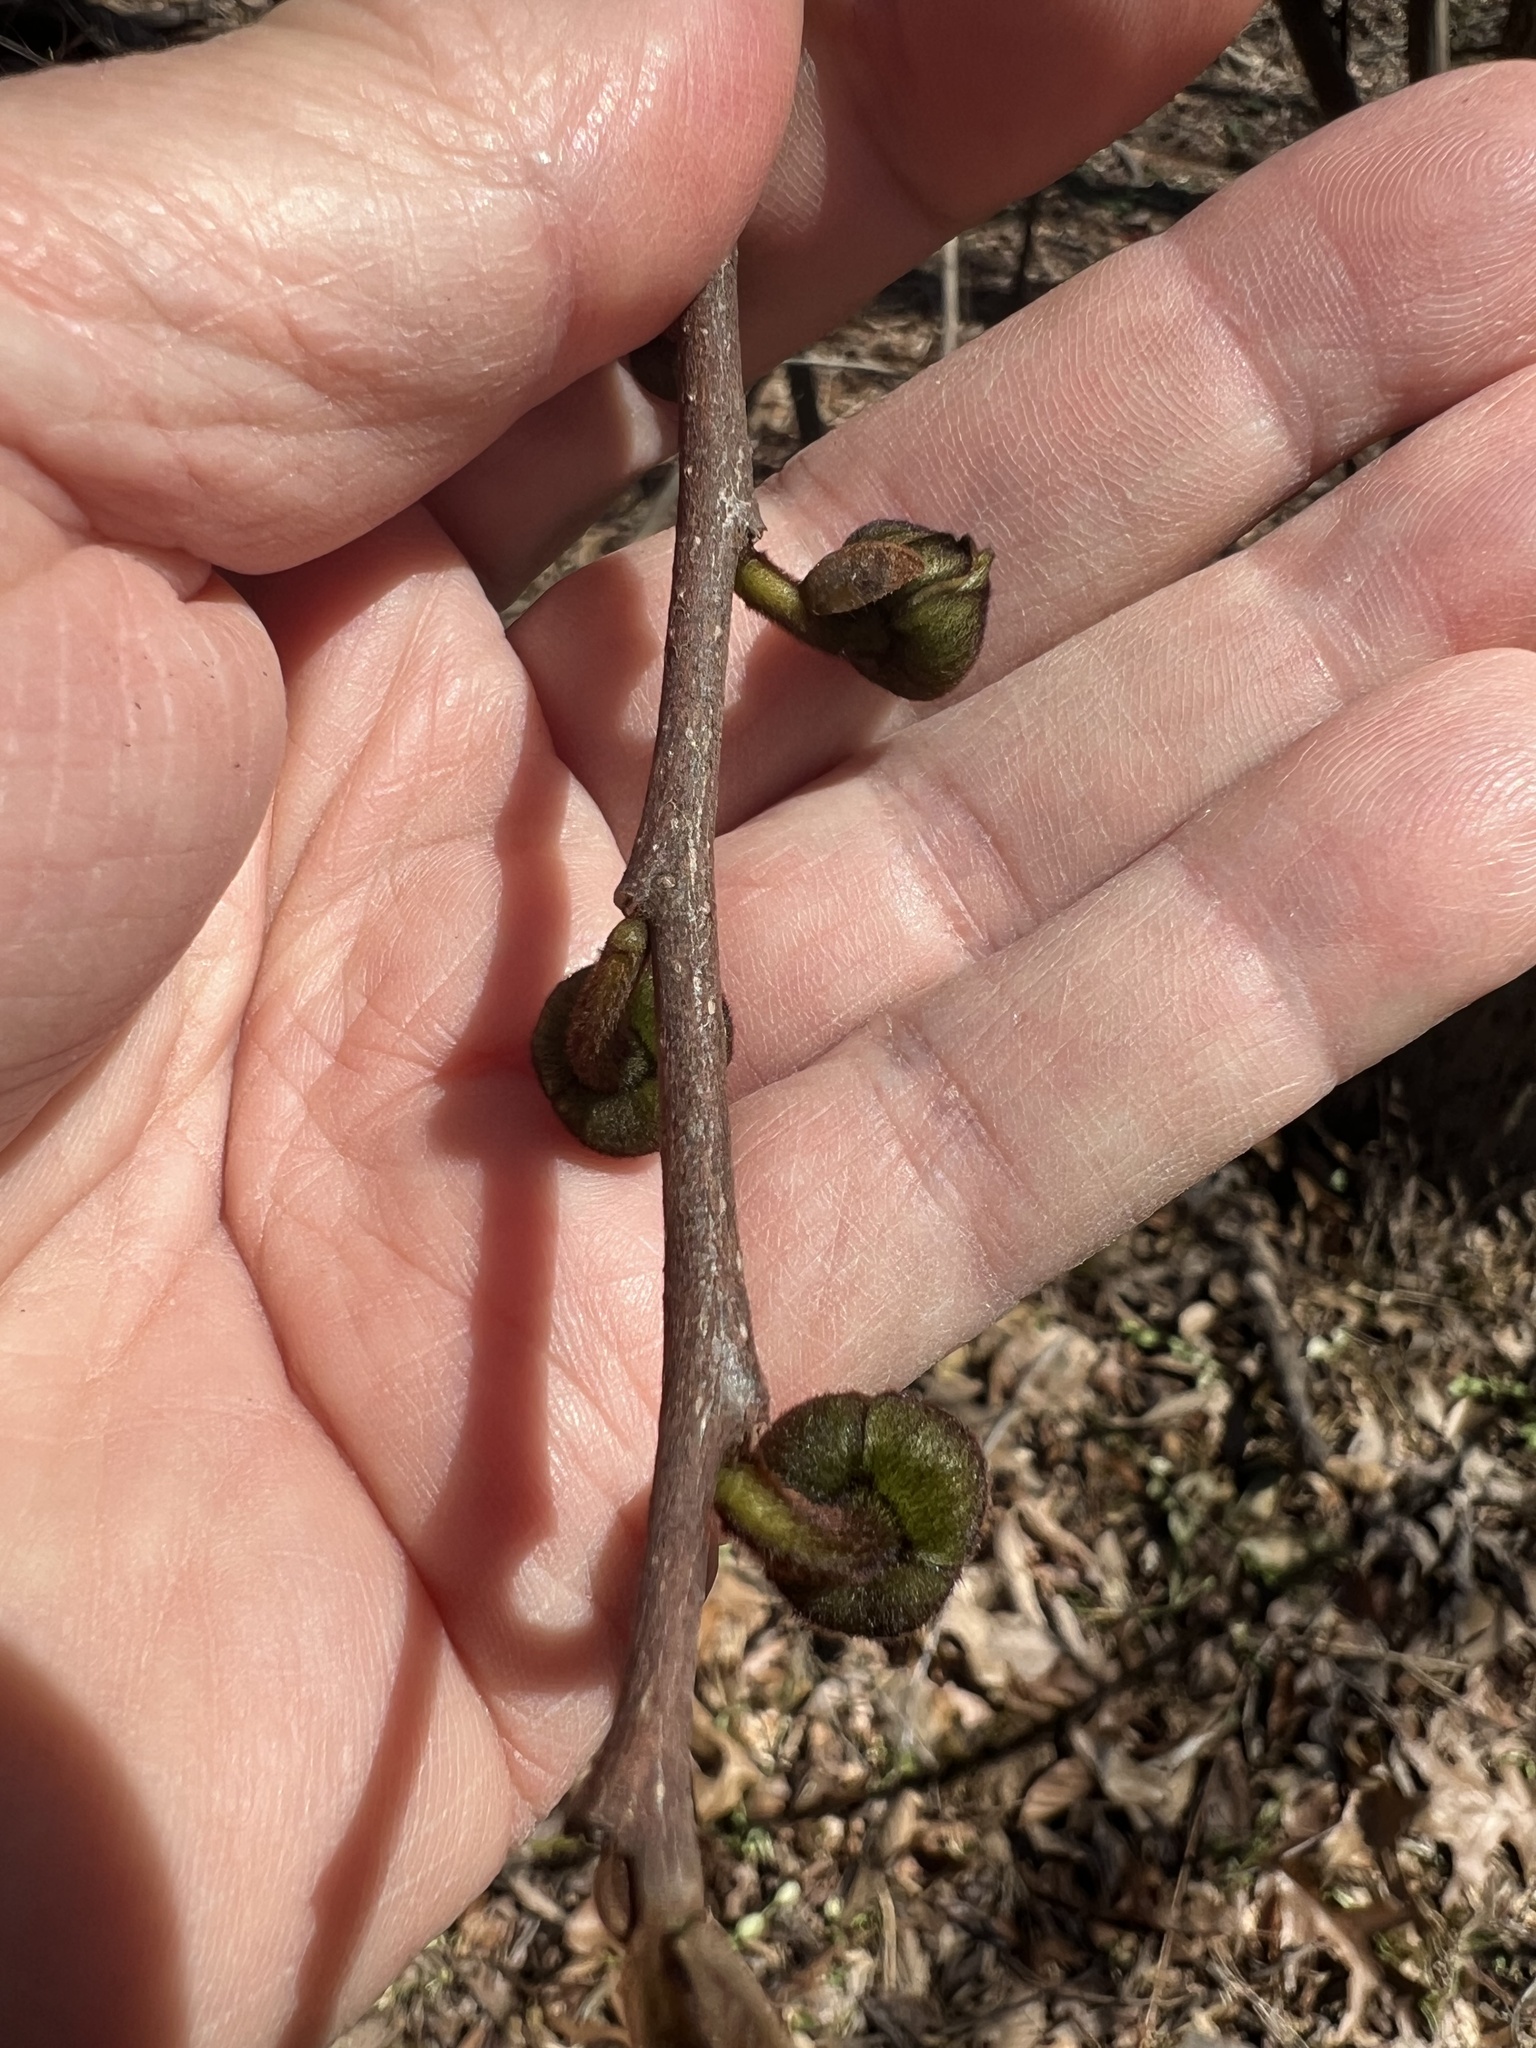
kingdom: Plantae
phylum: Tracheophyta
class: Magnoliopsida
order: Magnoliales
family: Annonaceae
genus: Asimina
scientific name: Asimina triloba
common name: Dog-banana
